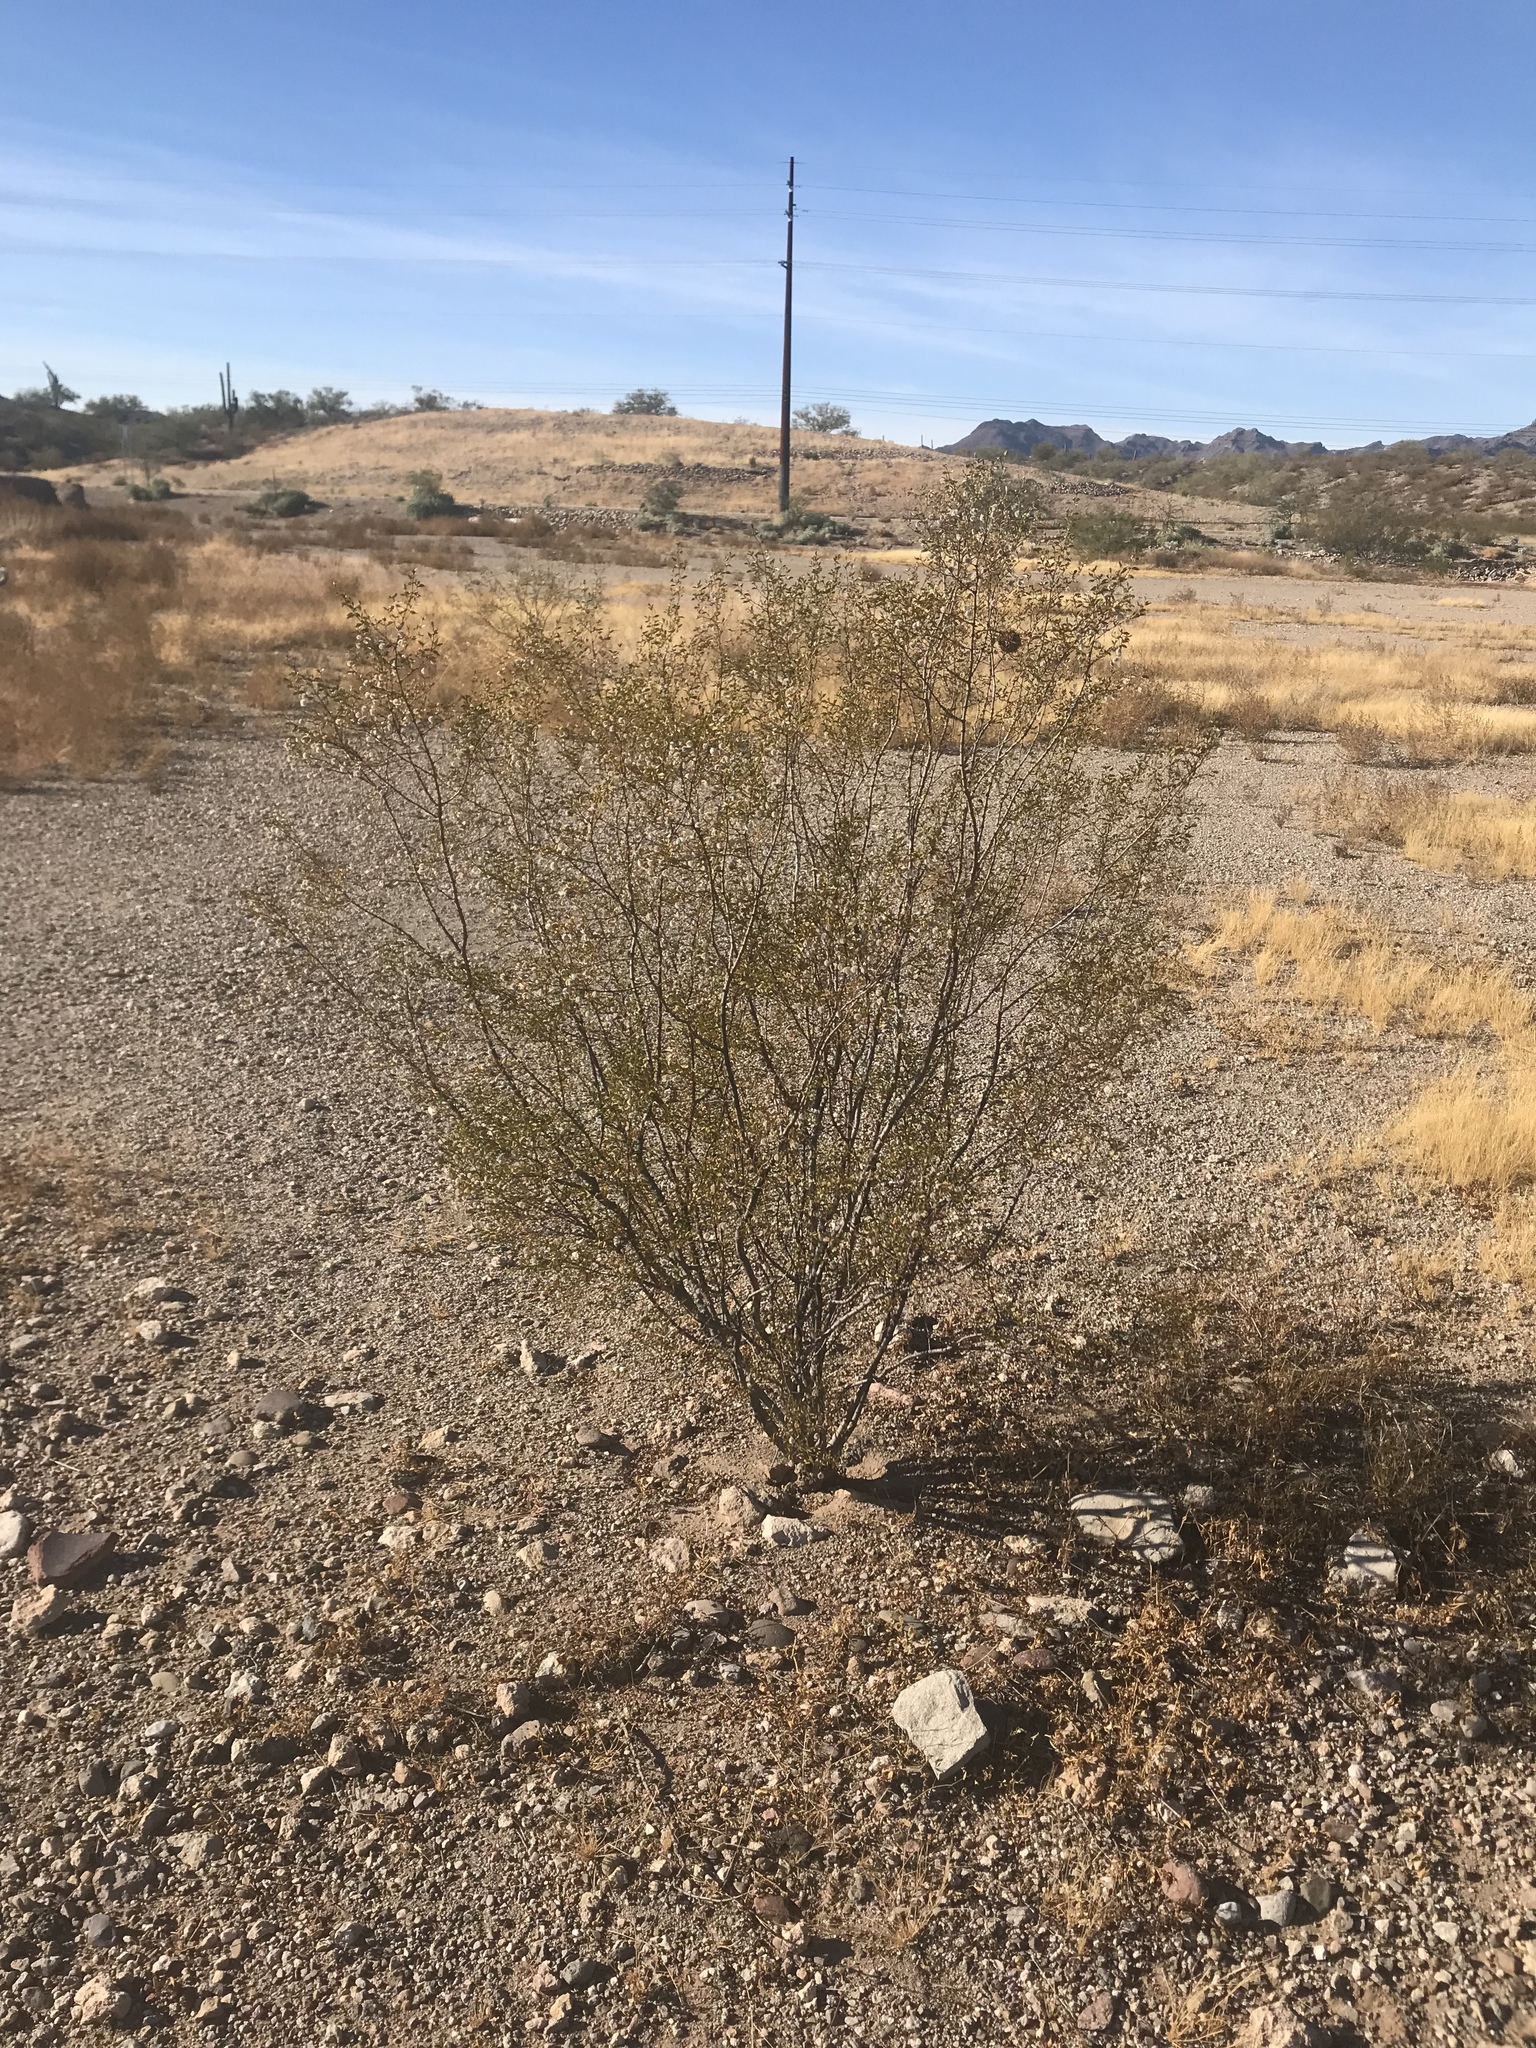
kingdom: Plantae
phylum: Tracheophyta
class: Magnoliopsida
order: Zygophyllales
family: Zygophyllaceae
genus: Larrea
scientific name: Larrea tridentata
